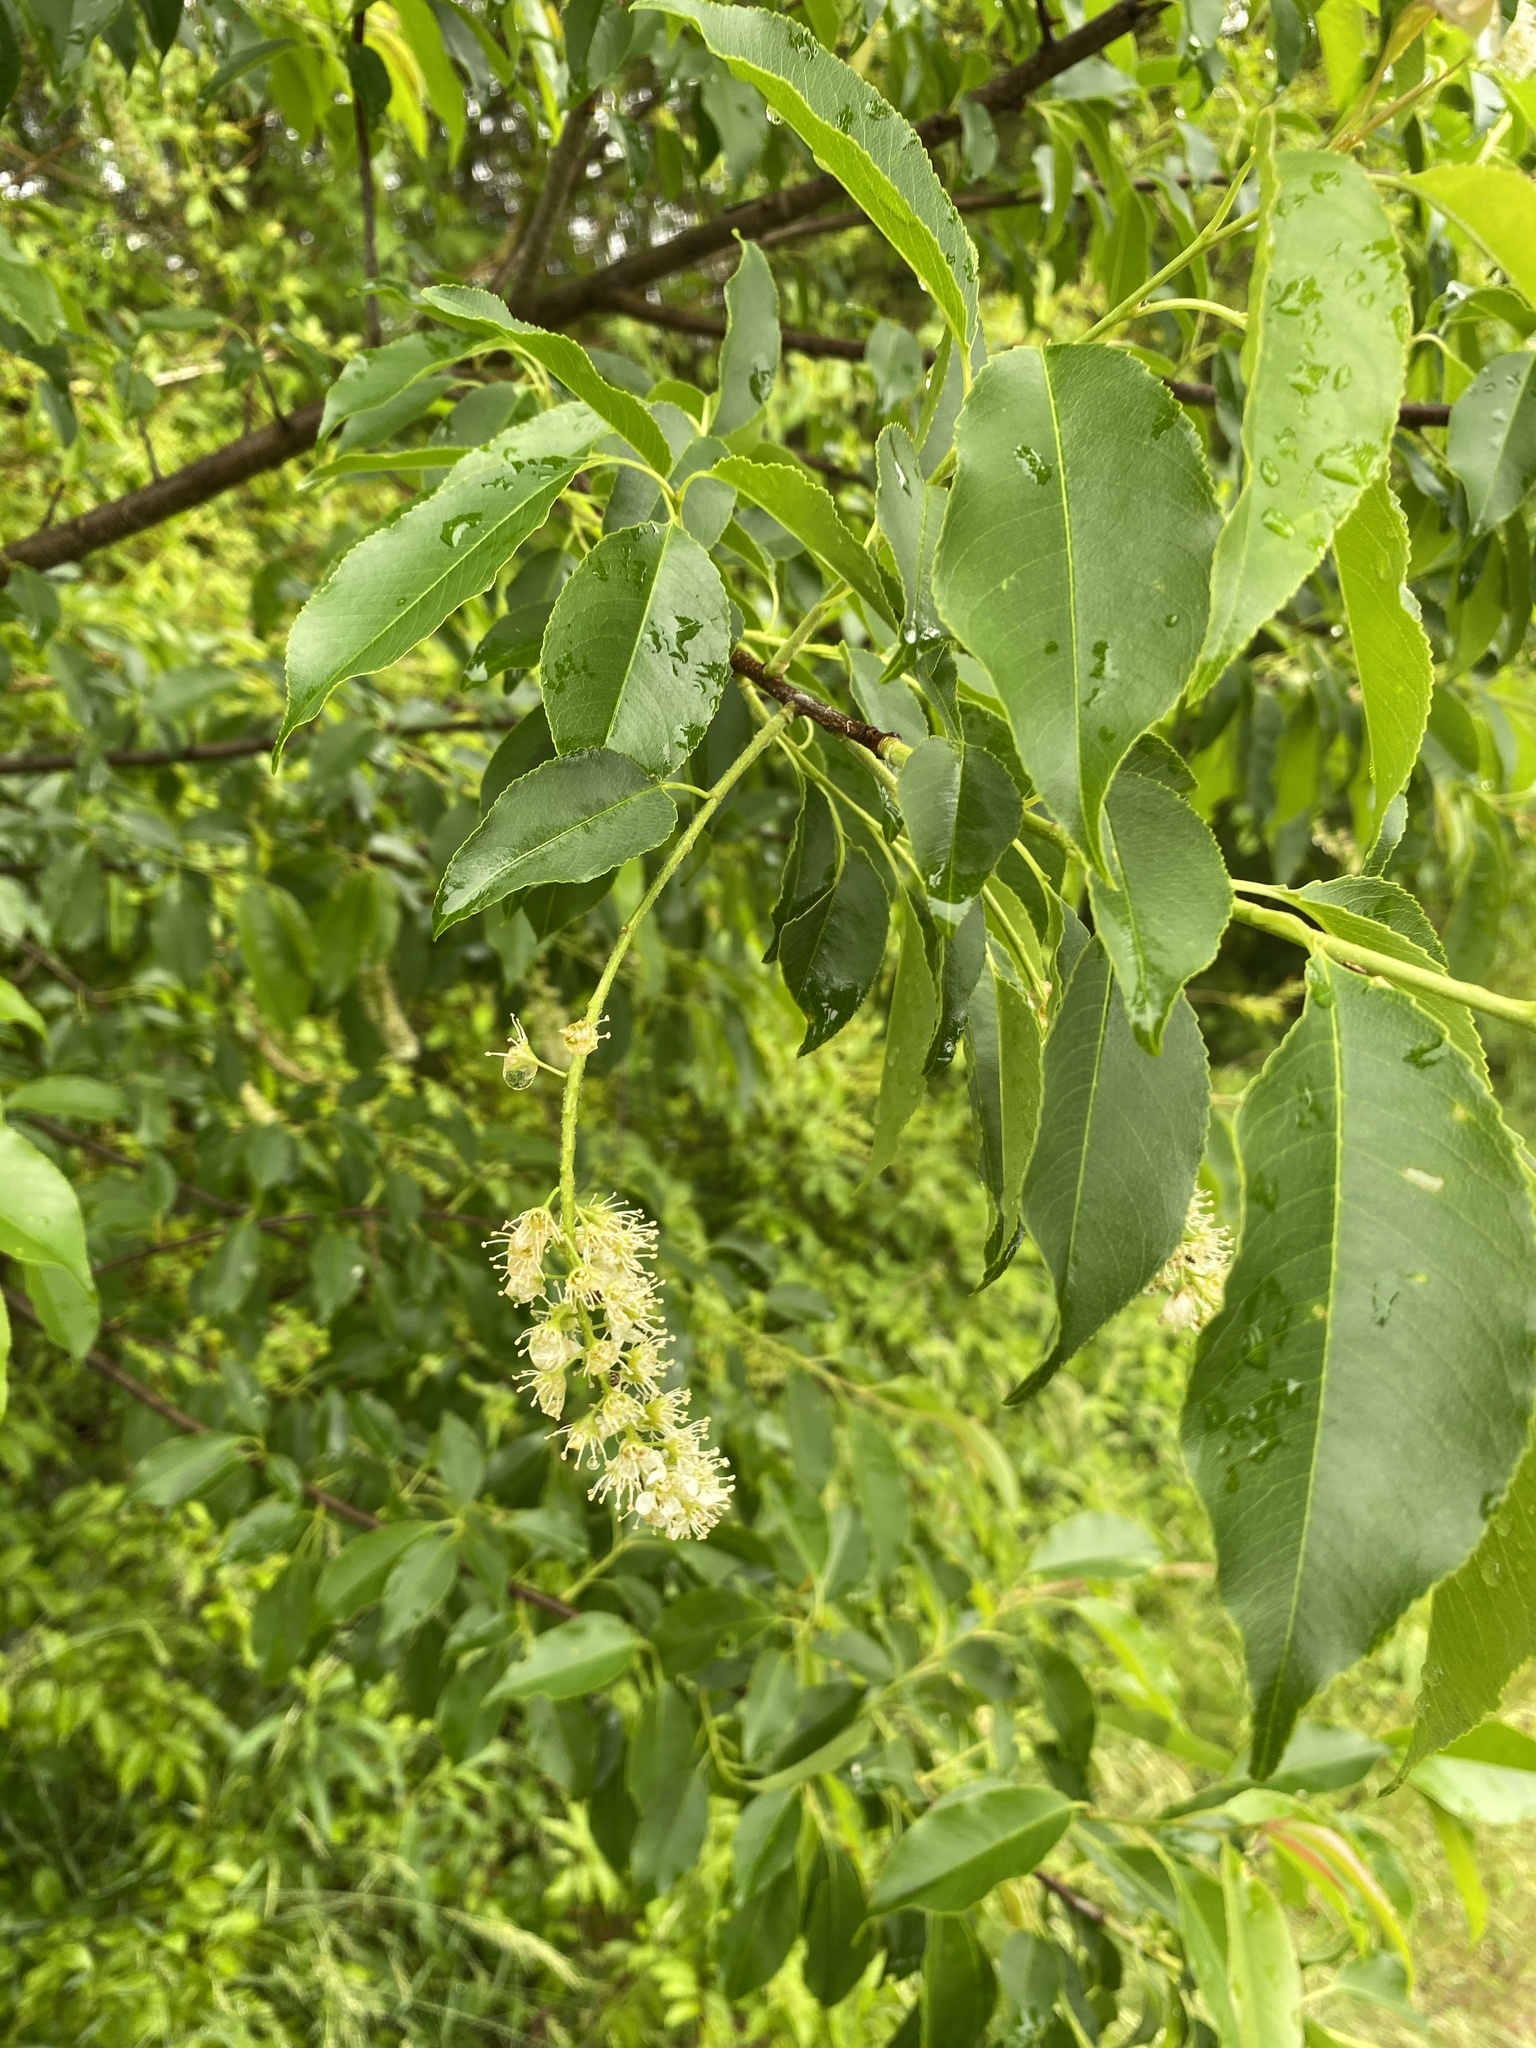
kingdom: Plantae
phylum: Tracheophyta
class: Magnoliopsida
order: Rosales
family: Rosaceae
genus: Prunus
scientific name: Prunus serotina
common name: Black cherry
